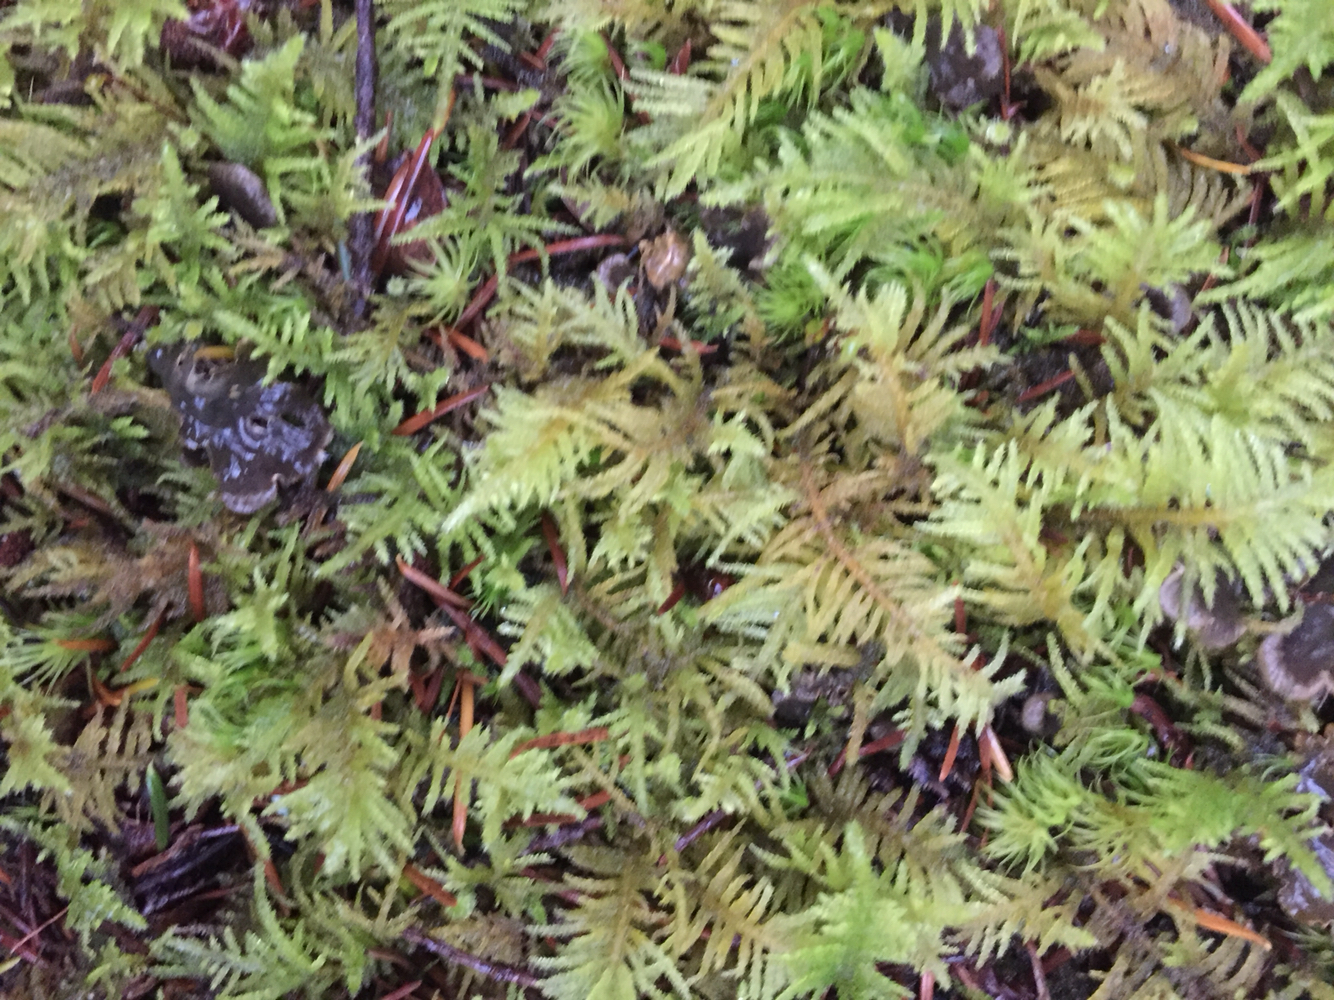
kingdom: Plantae
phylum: Bryophyta
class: Bryopsida
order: Hypnales
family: Brachytheciaceae
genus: Kindbergia
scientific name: Kindbergia oregana
